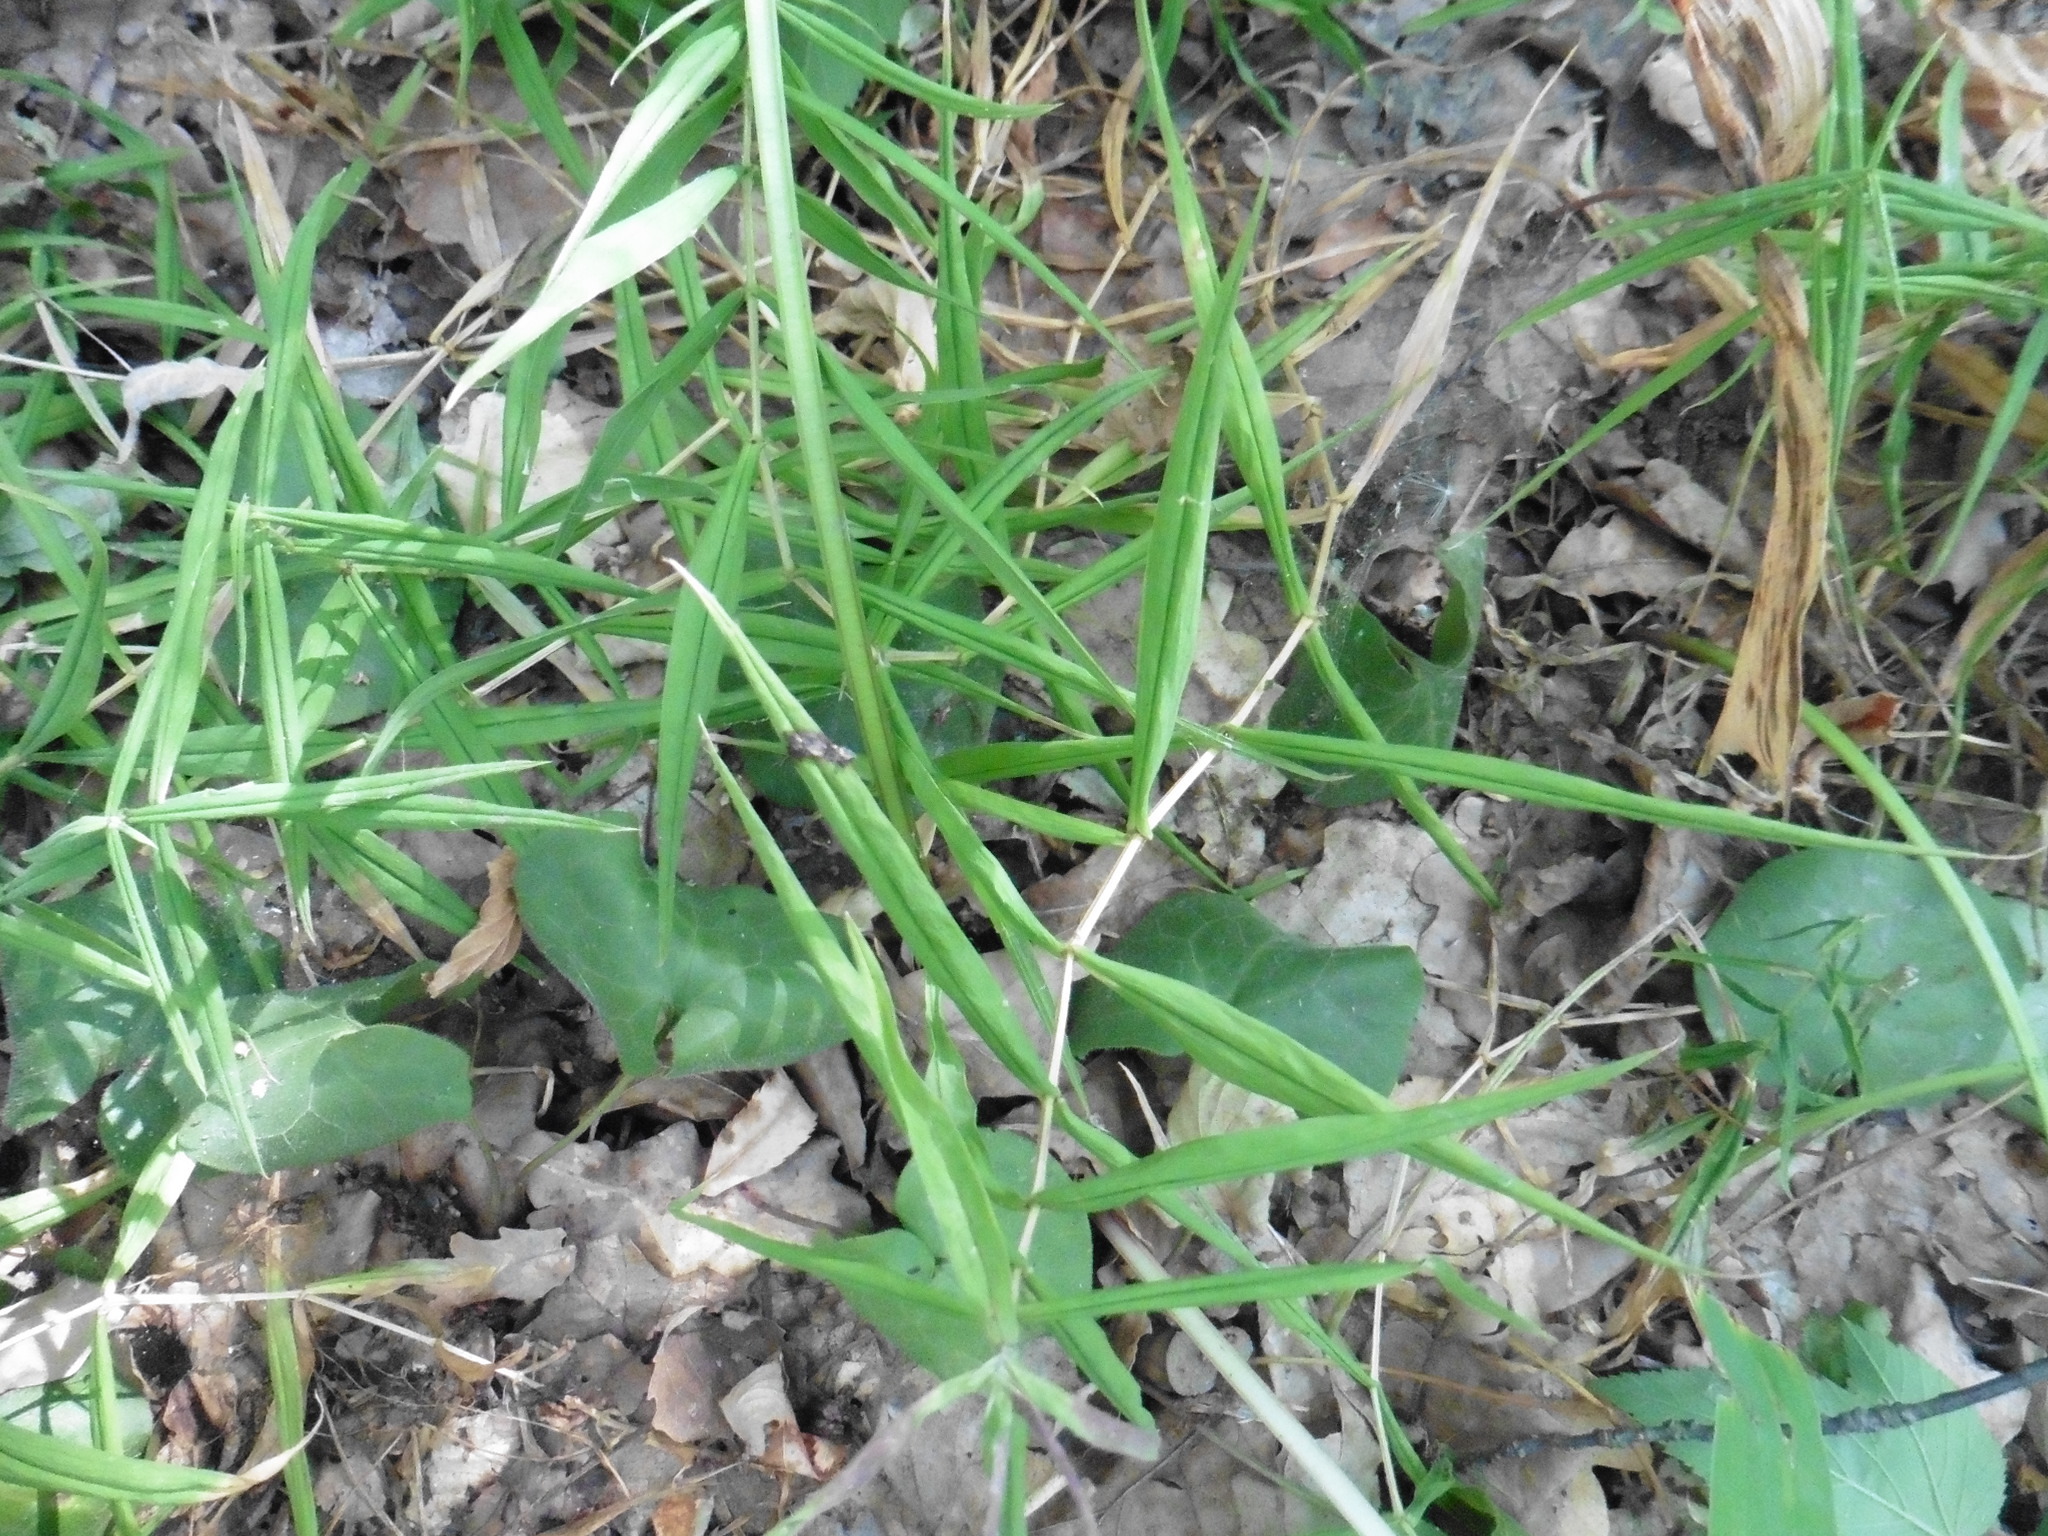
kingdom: Plantae
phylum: Tracheophyta
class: Magnoliopsida
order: Caryophyllales
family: Caryophyllaceae
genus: Rabelera
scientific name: Rabelera holostea
